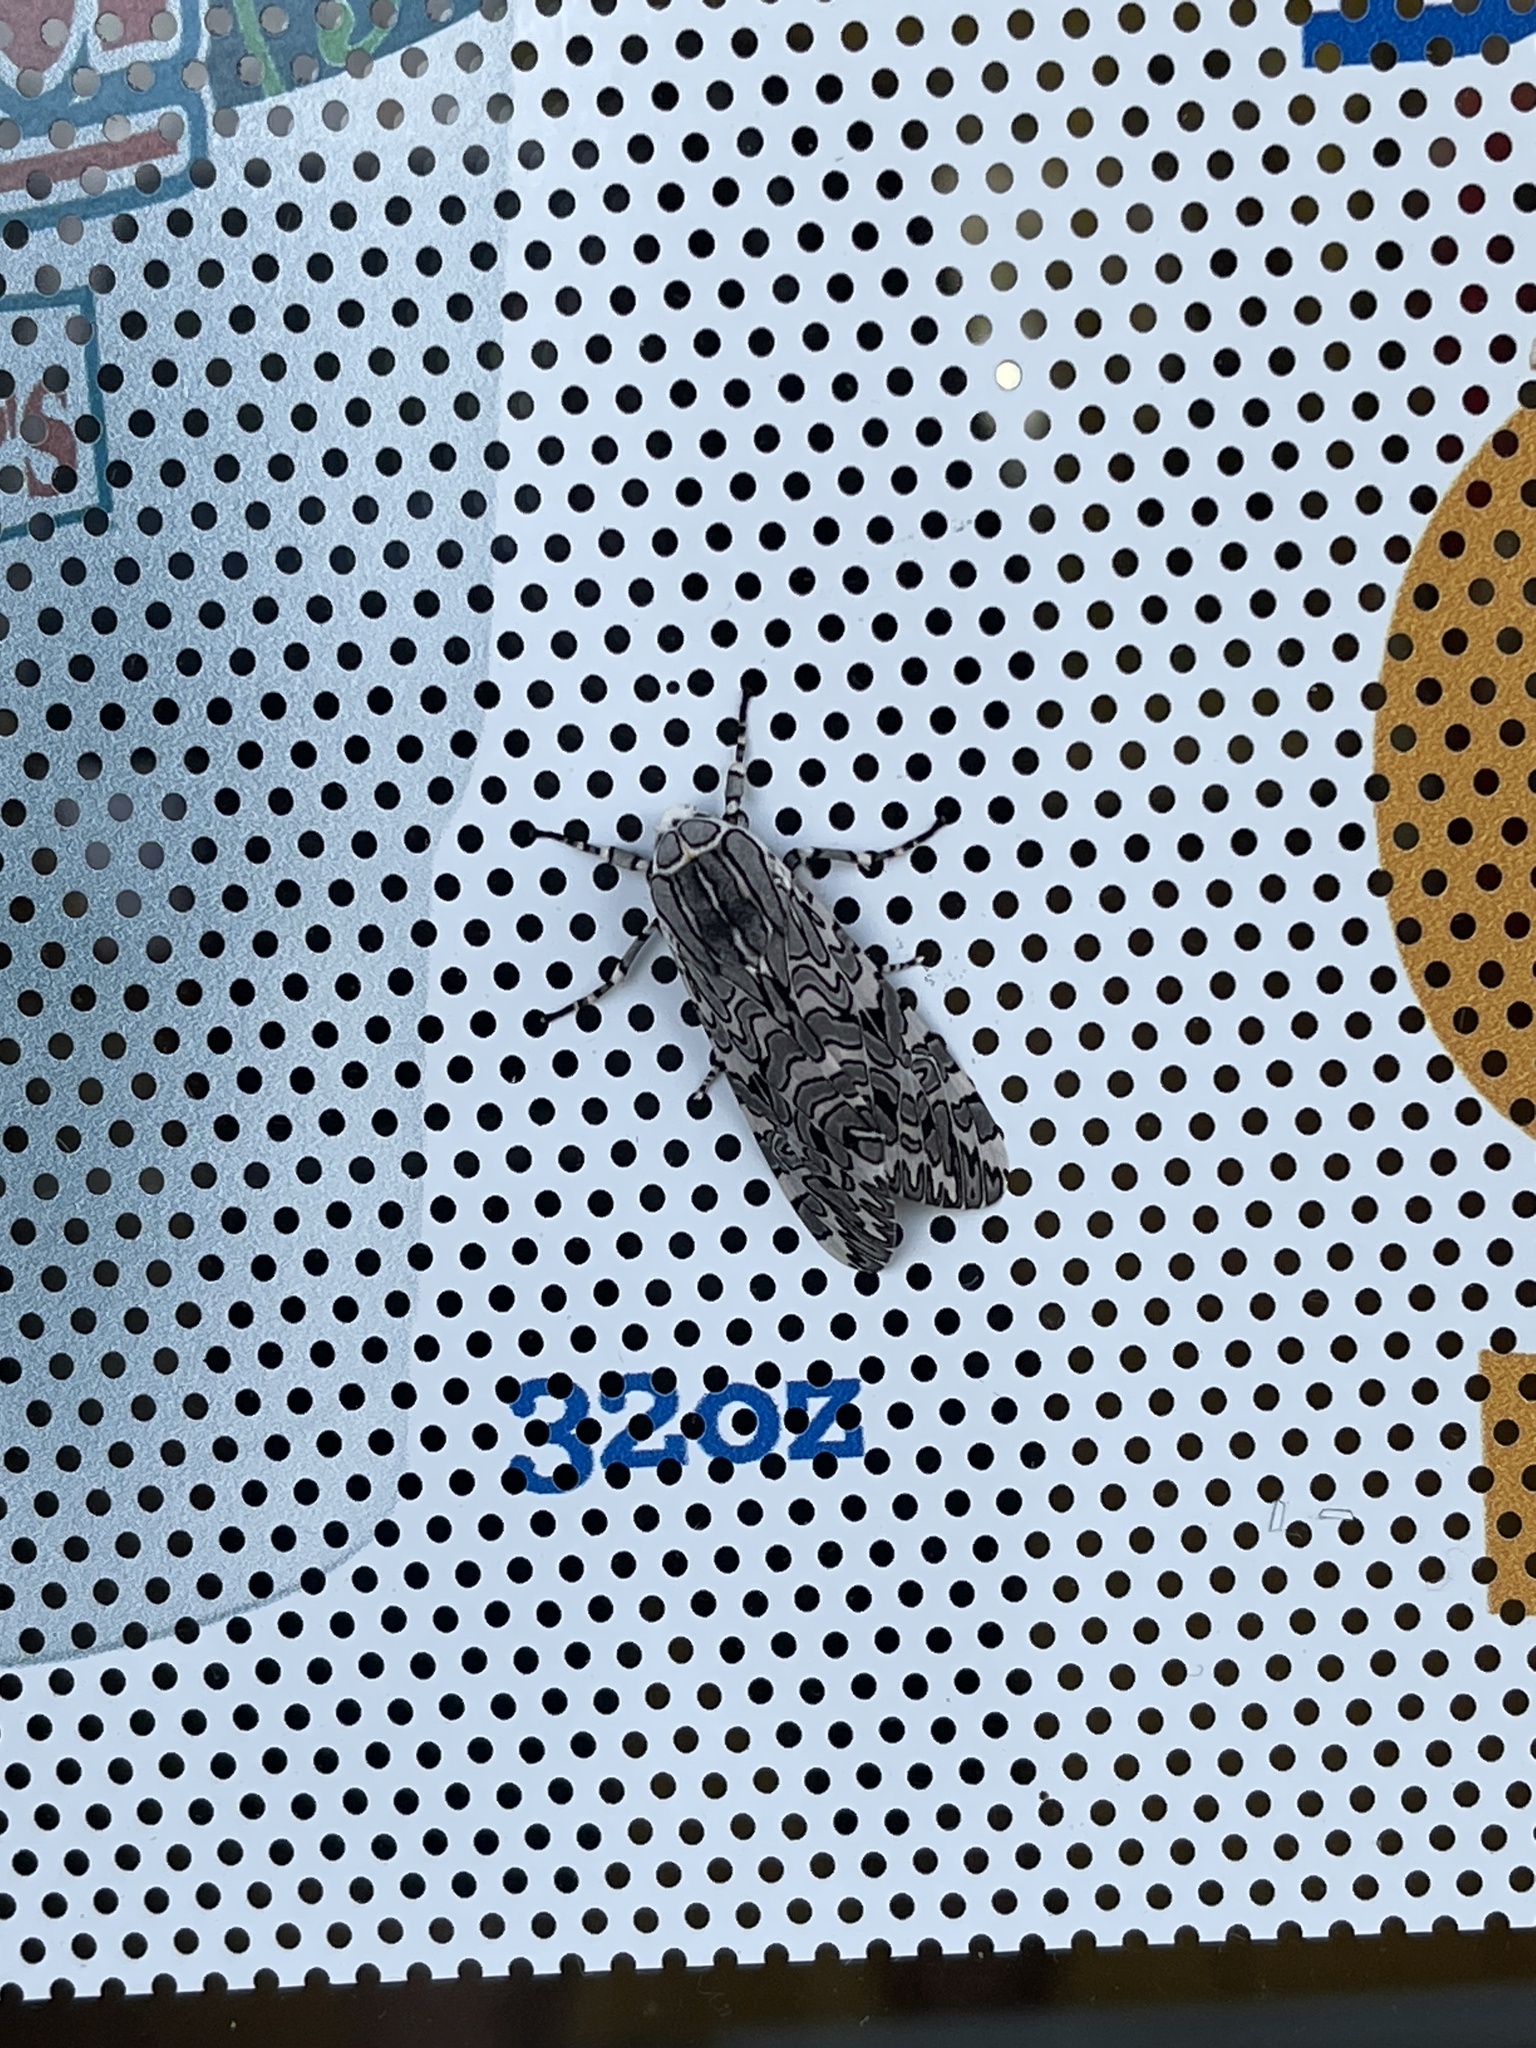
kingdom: Animalia
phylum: Arthropoda
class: Insecta
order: Lepidoptera
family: Erebidae
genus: Arachnis
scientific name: Arachnis picta
